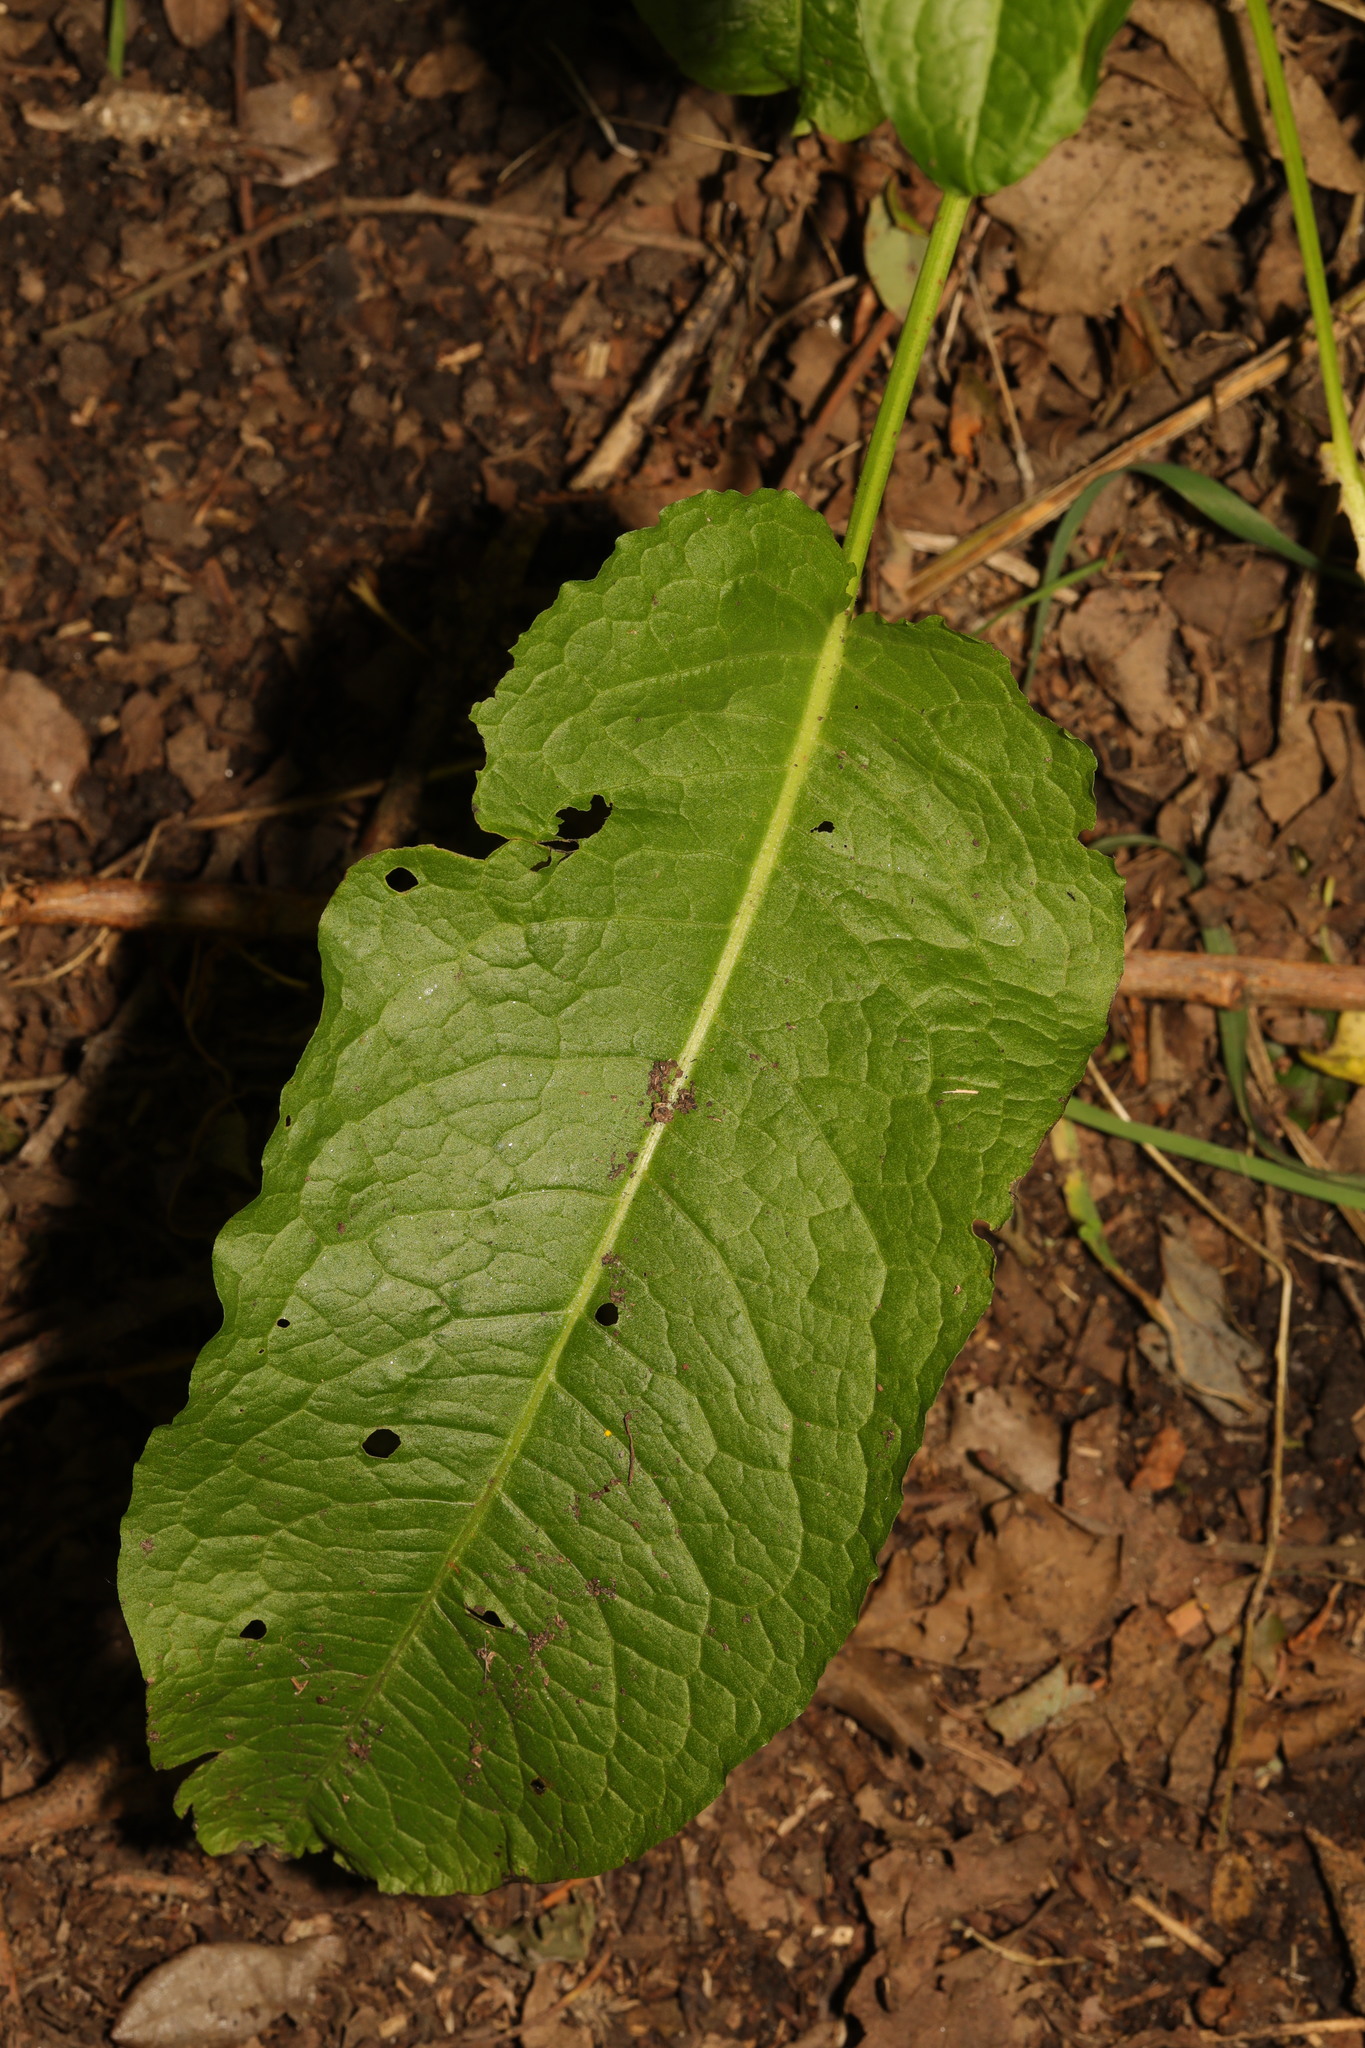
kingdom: Plantae
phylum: Tracheophyta
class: Magnoliopsida
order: Caryophyllales
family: Polygonaceae
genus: Rumex
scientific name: Rumex obtusifolius
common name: Bitter dock
